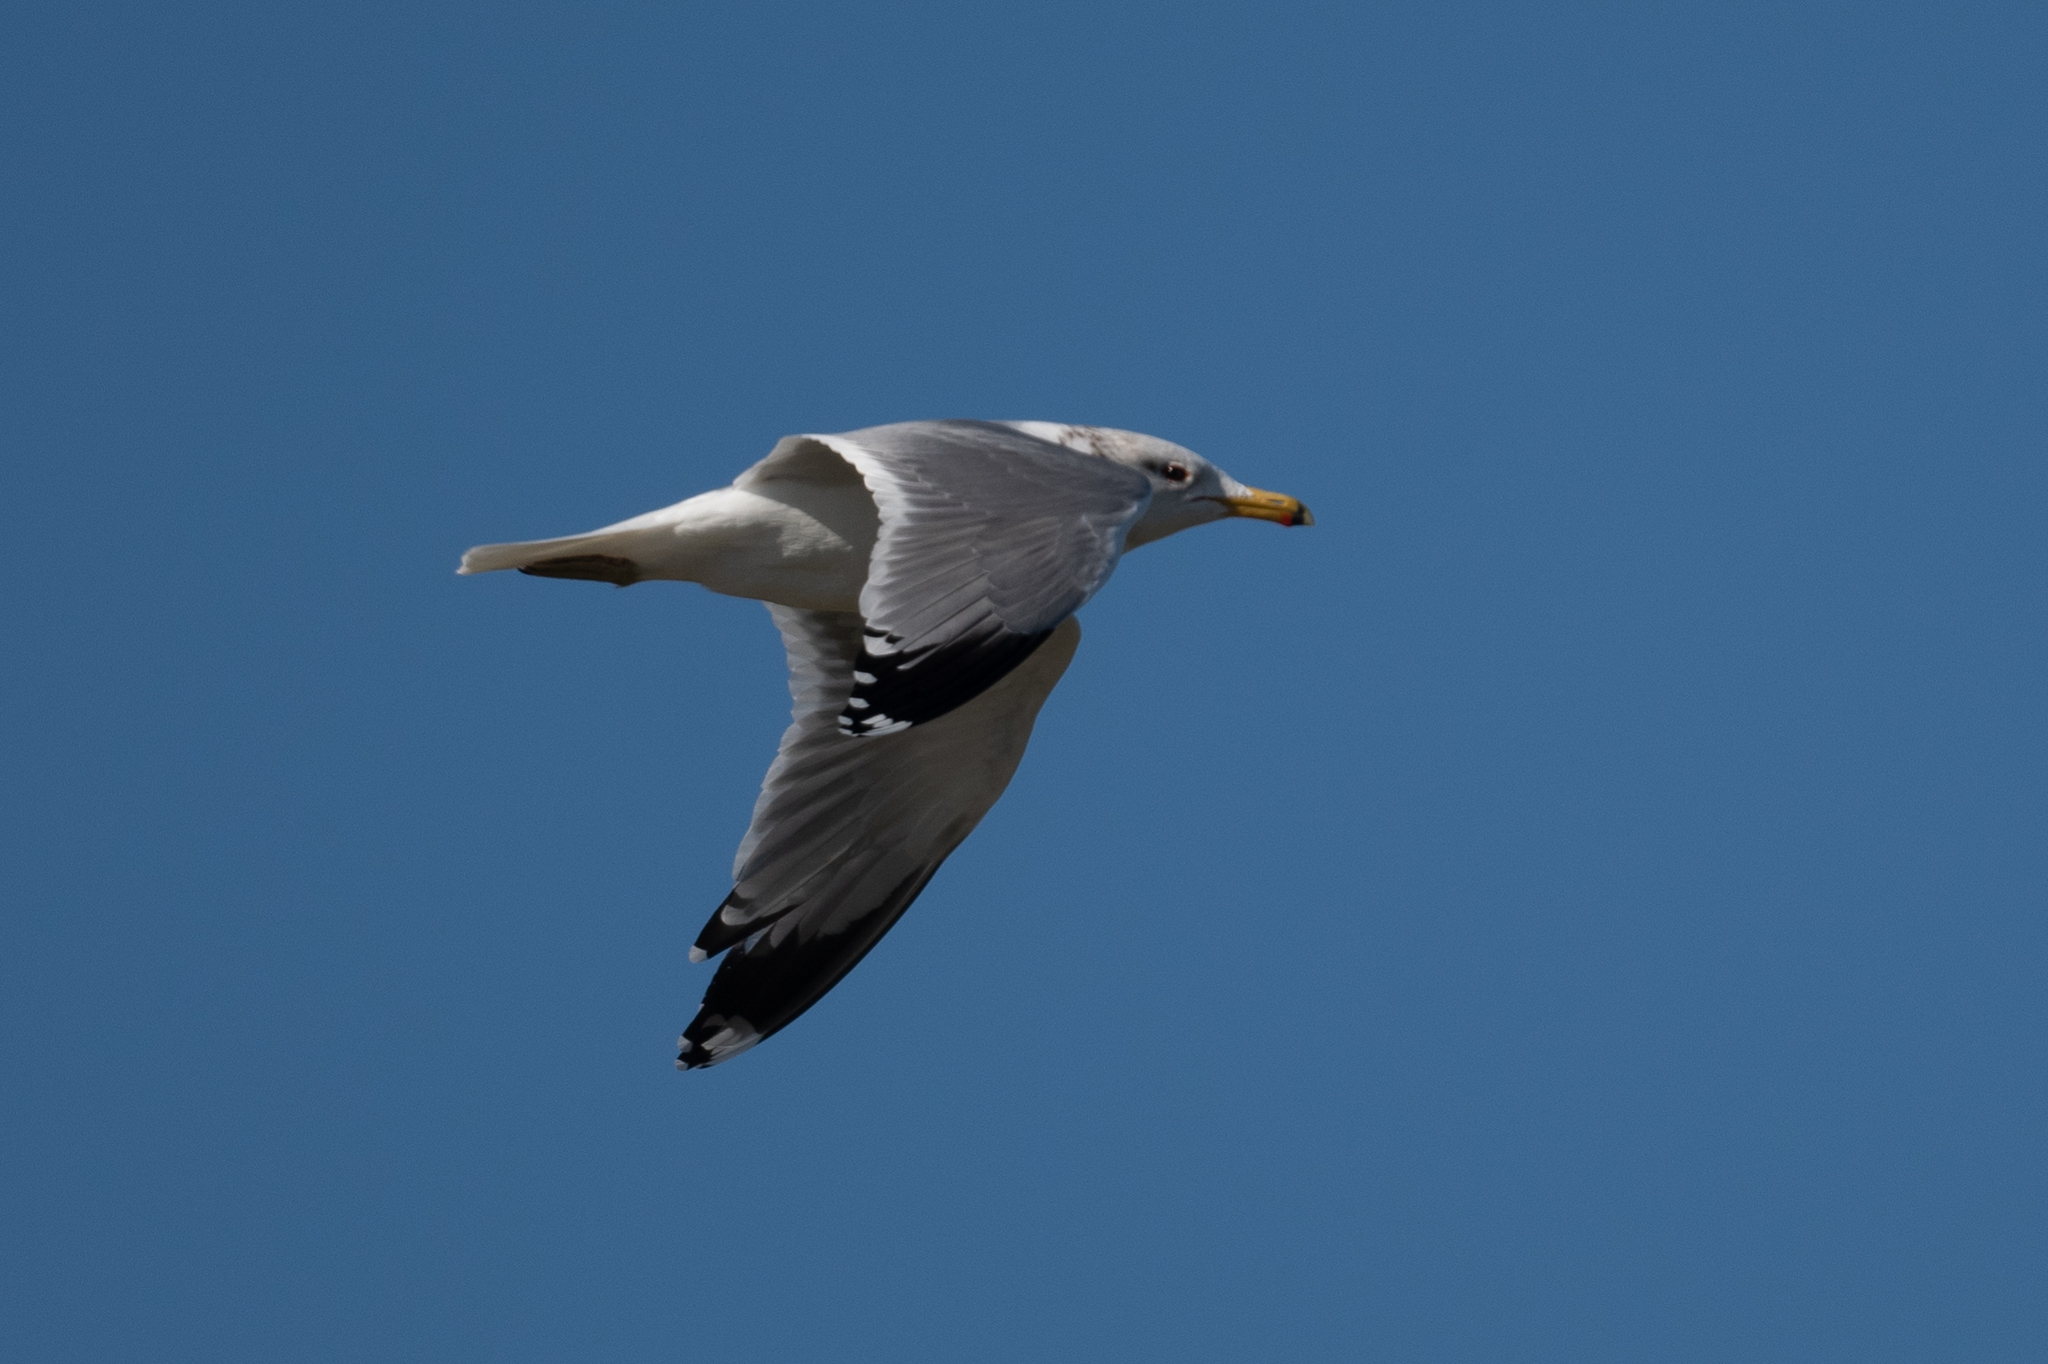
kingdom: Animalia
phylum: Chordata
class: Aves
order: Charadriiformes
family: Laridae
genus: Larus
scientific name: Larus californicus
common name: California gull
